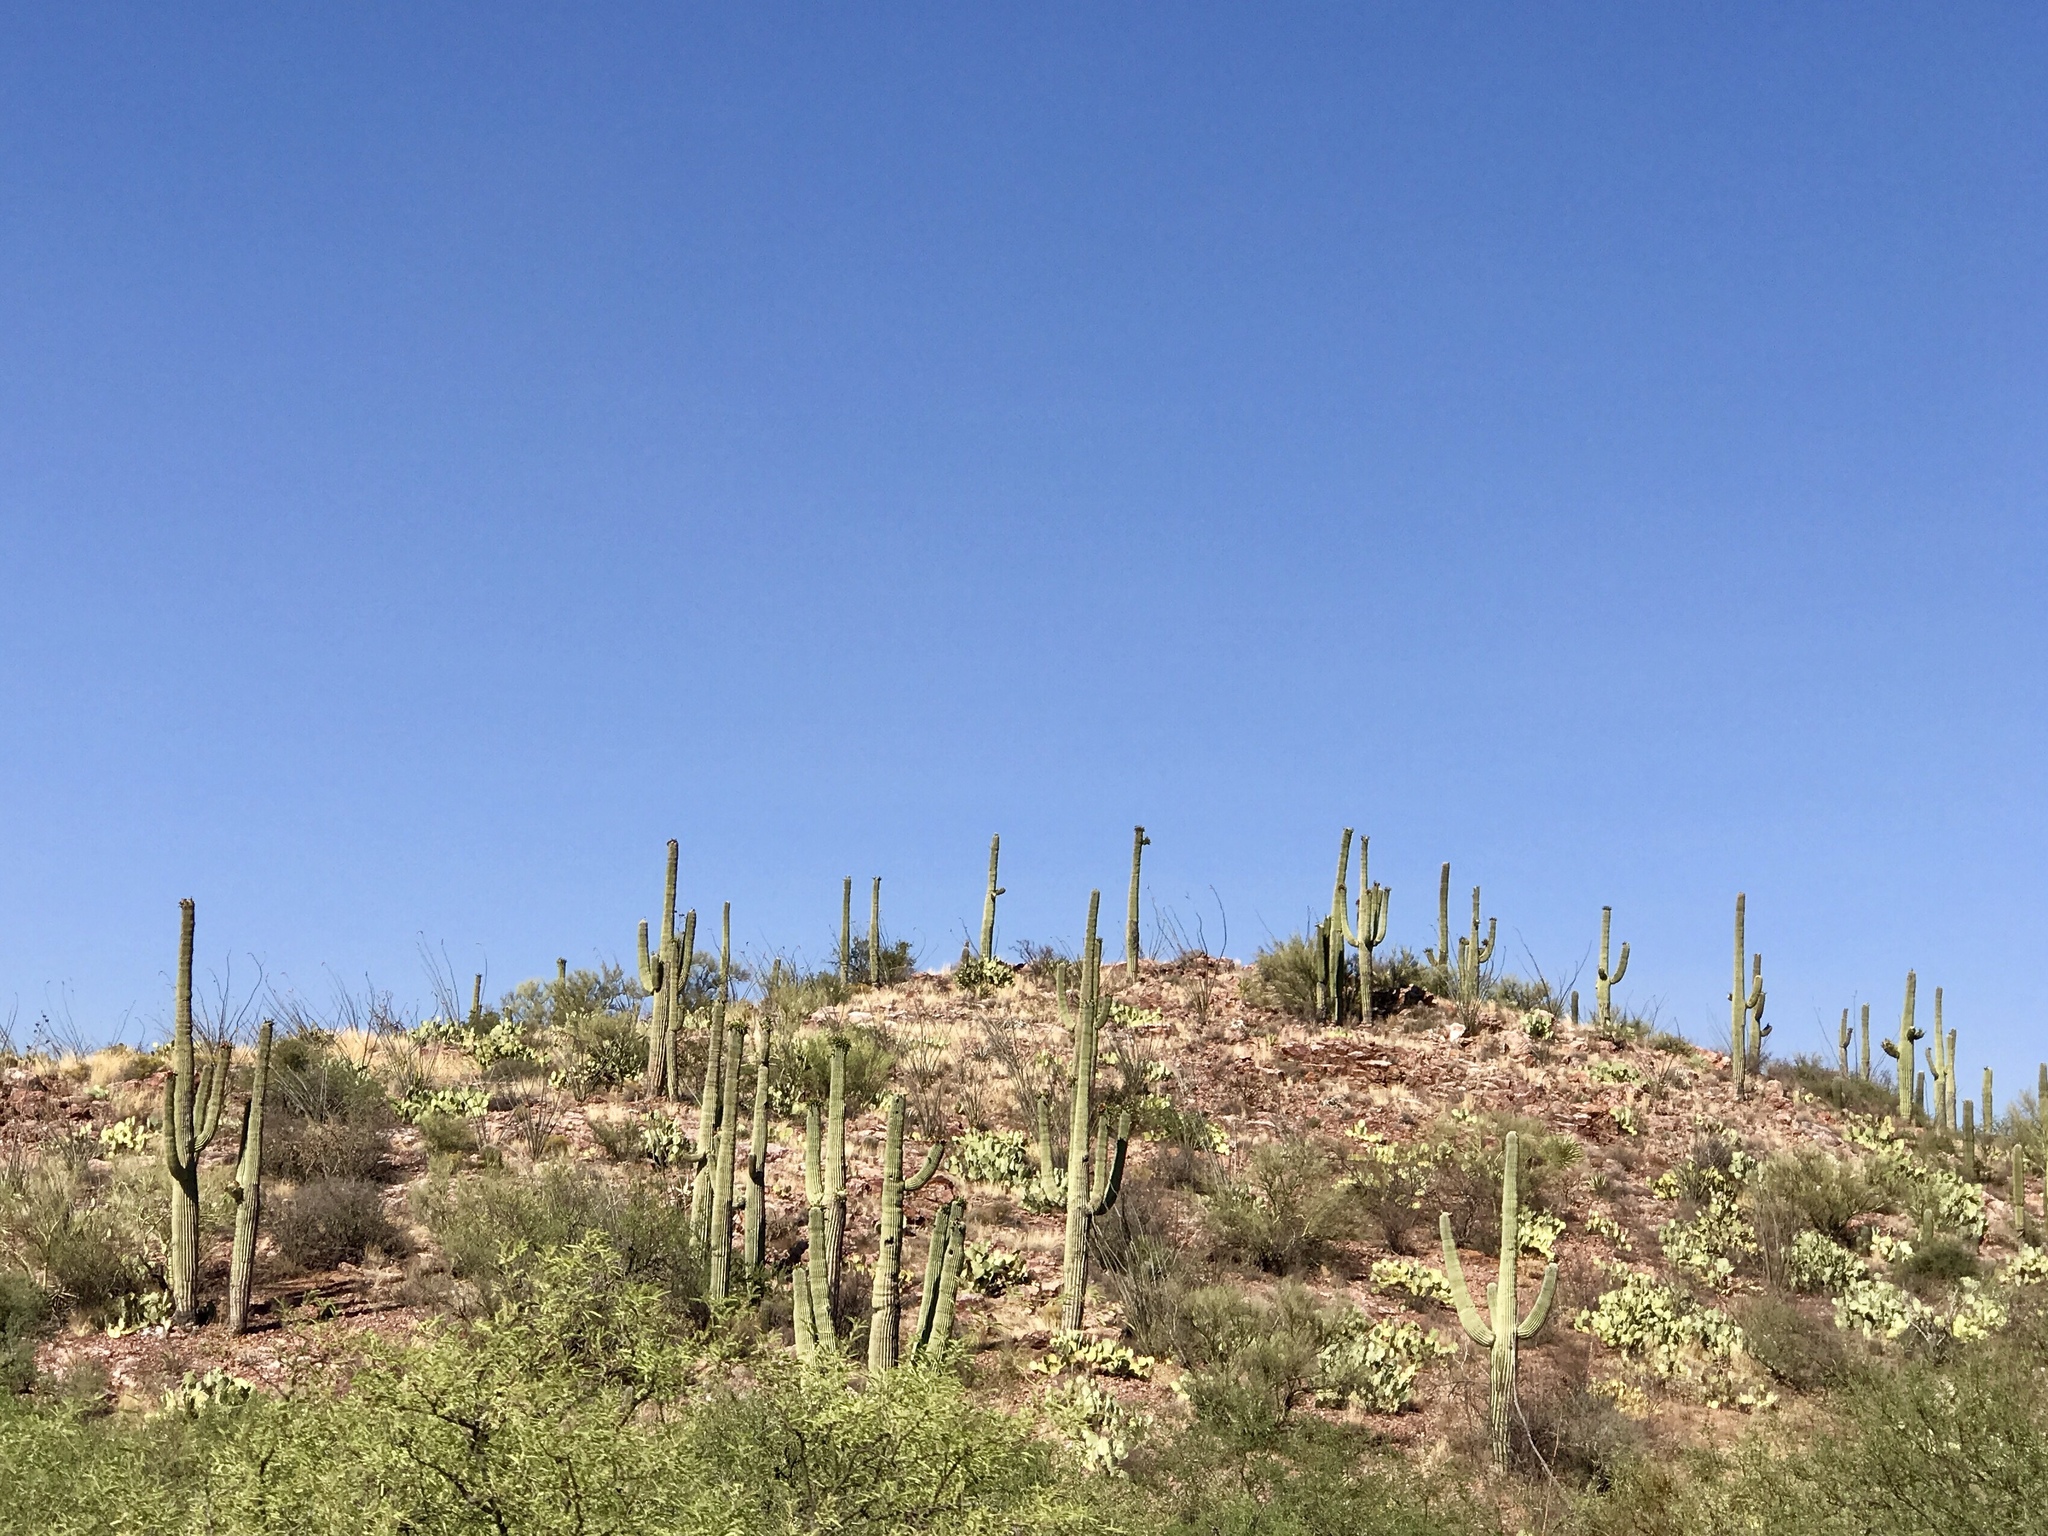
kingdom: Plantae
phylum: Tracheophyta
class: Magnoliopsida
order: Caryophyllales
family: Cactaceae
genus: Carnegiea
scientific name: Carnegiea gigantea
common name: Saguaro
